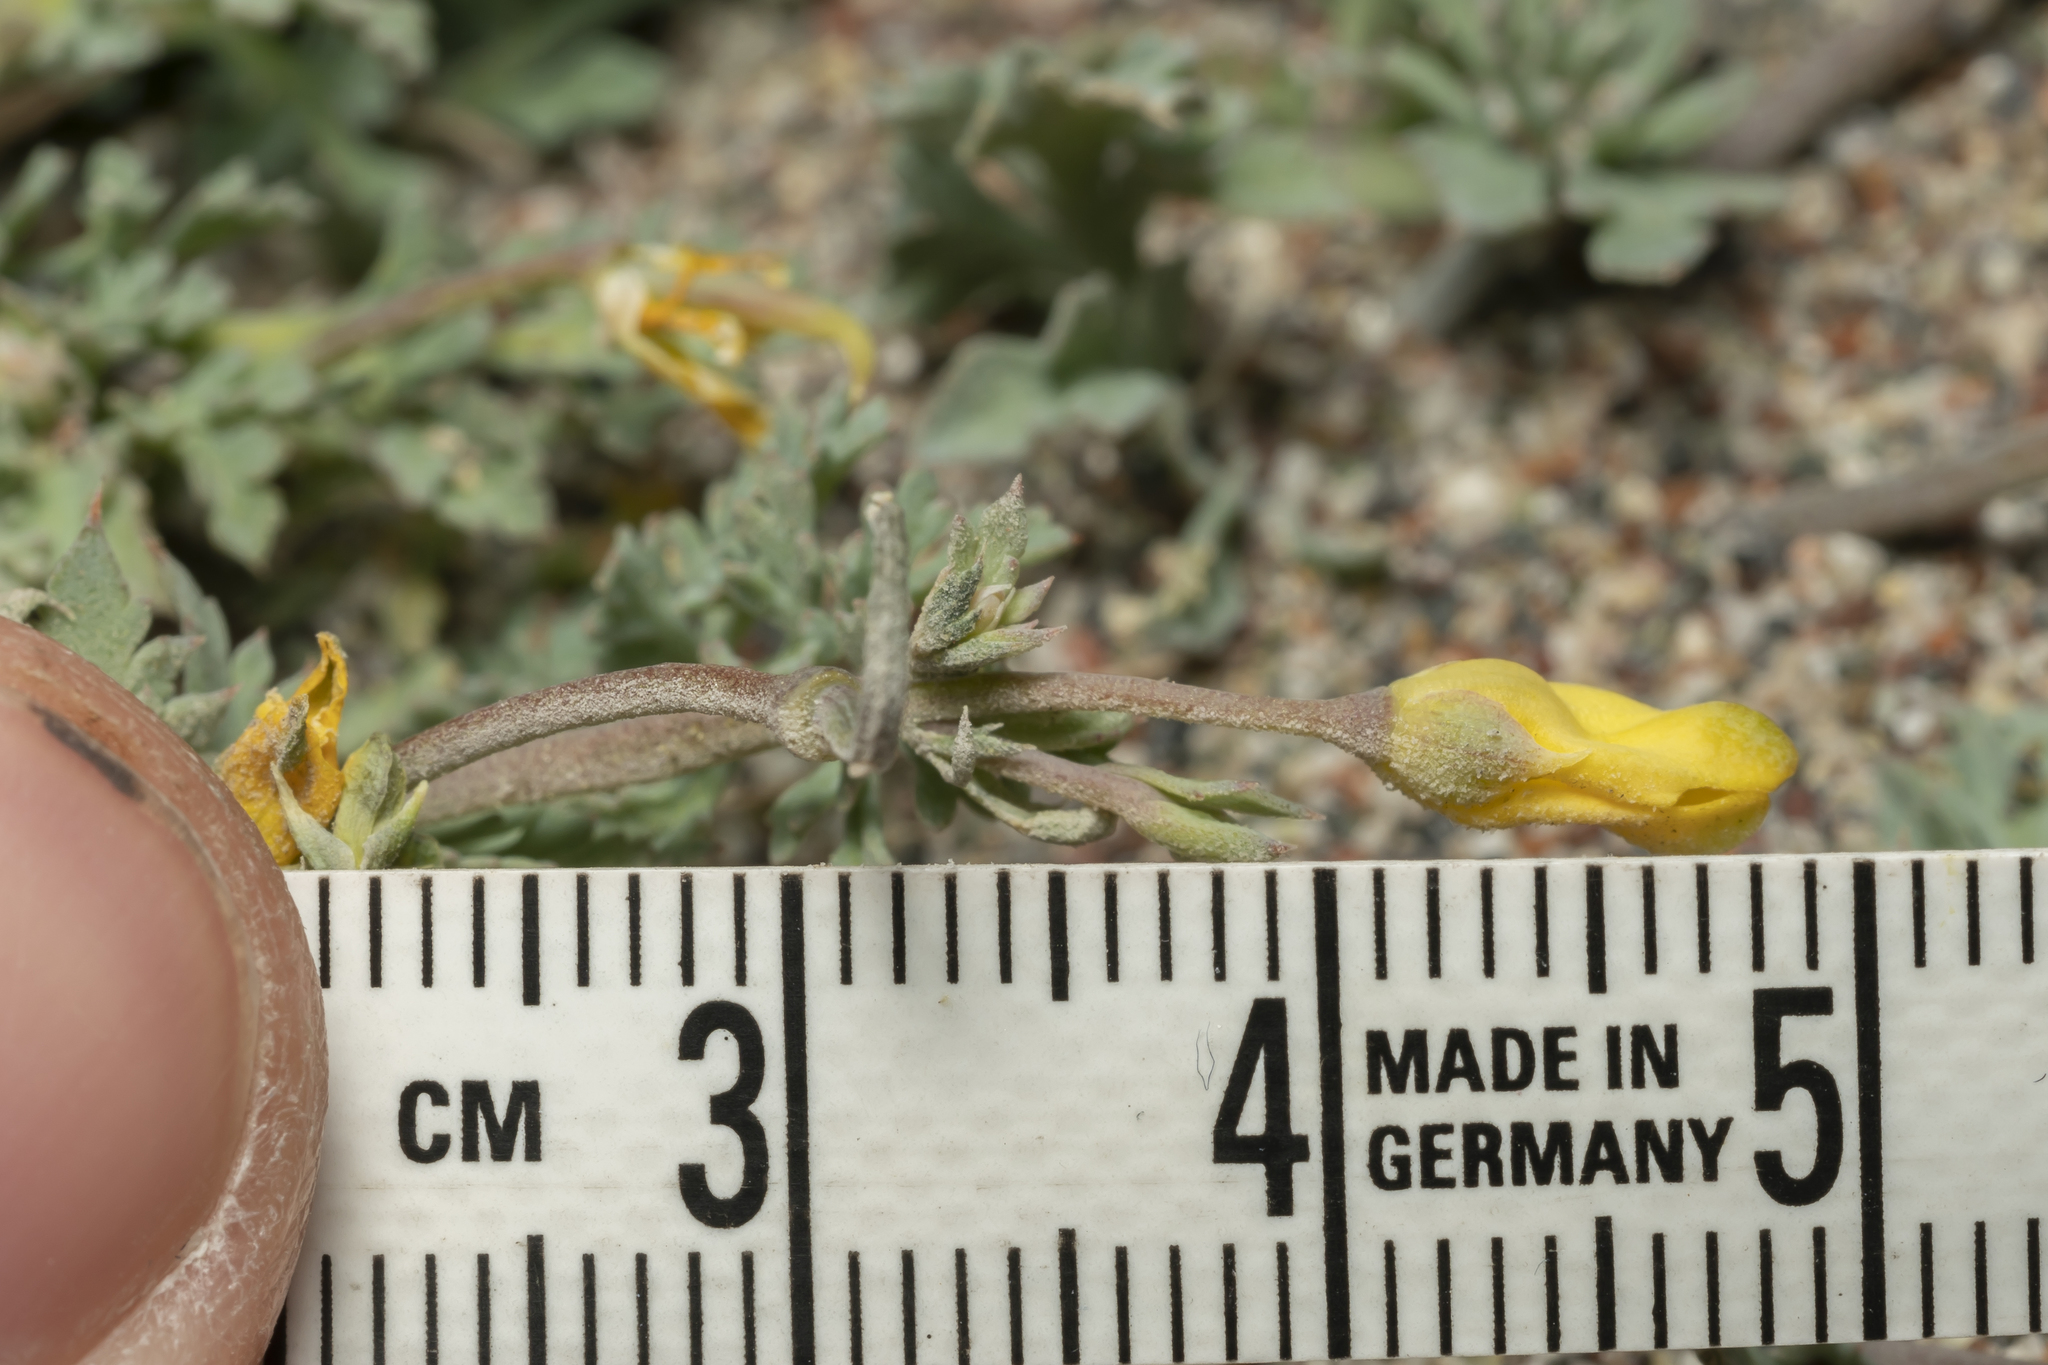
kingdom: Plantae
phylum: Tracheophyta
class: Magnoliopsida
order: Ranunculales
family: Papaveraceae
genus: Hypecoum
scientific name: Hypecoum torulosum
